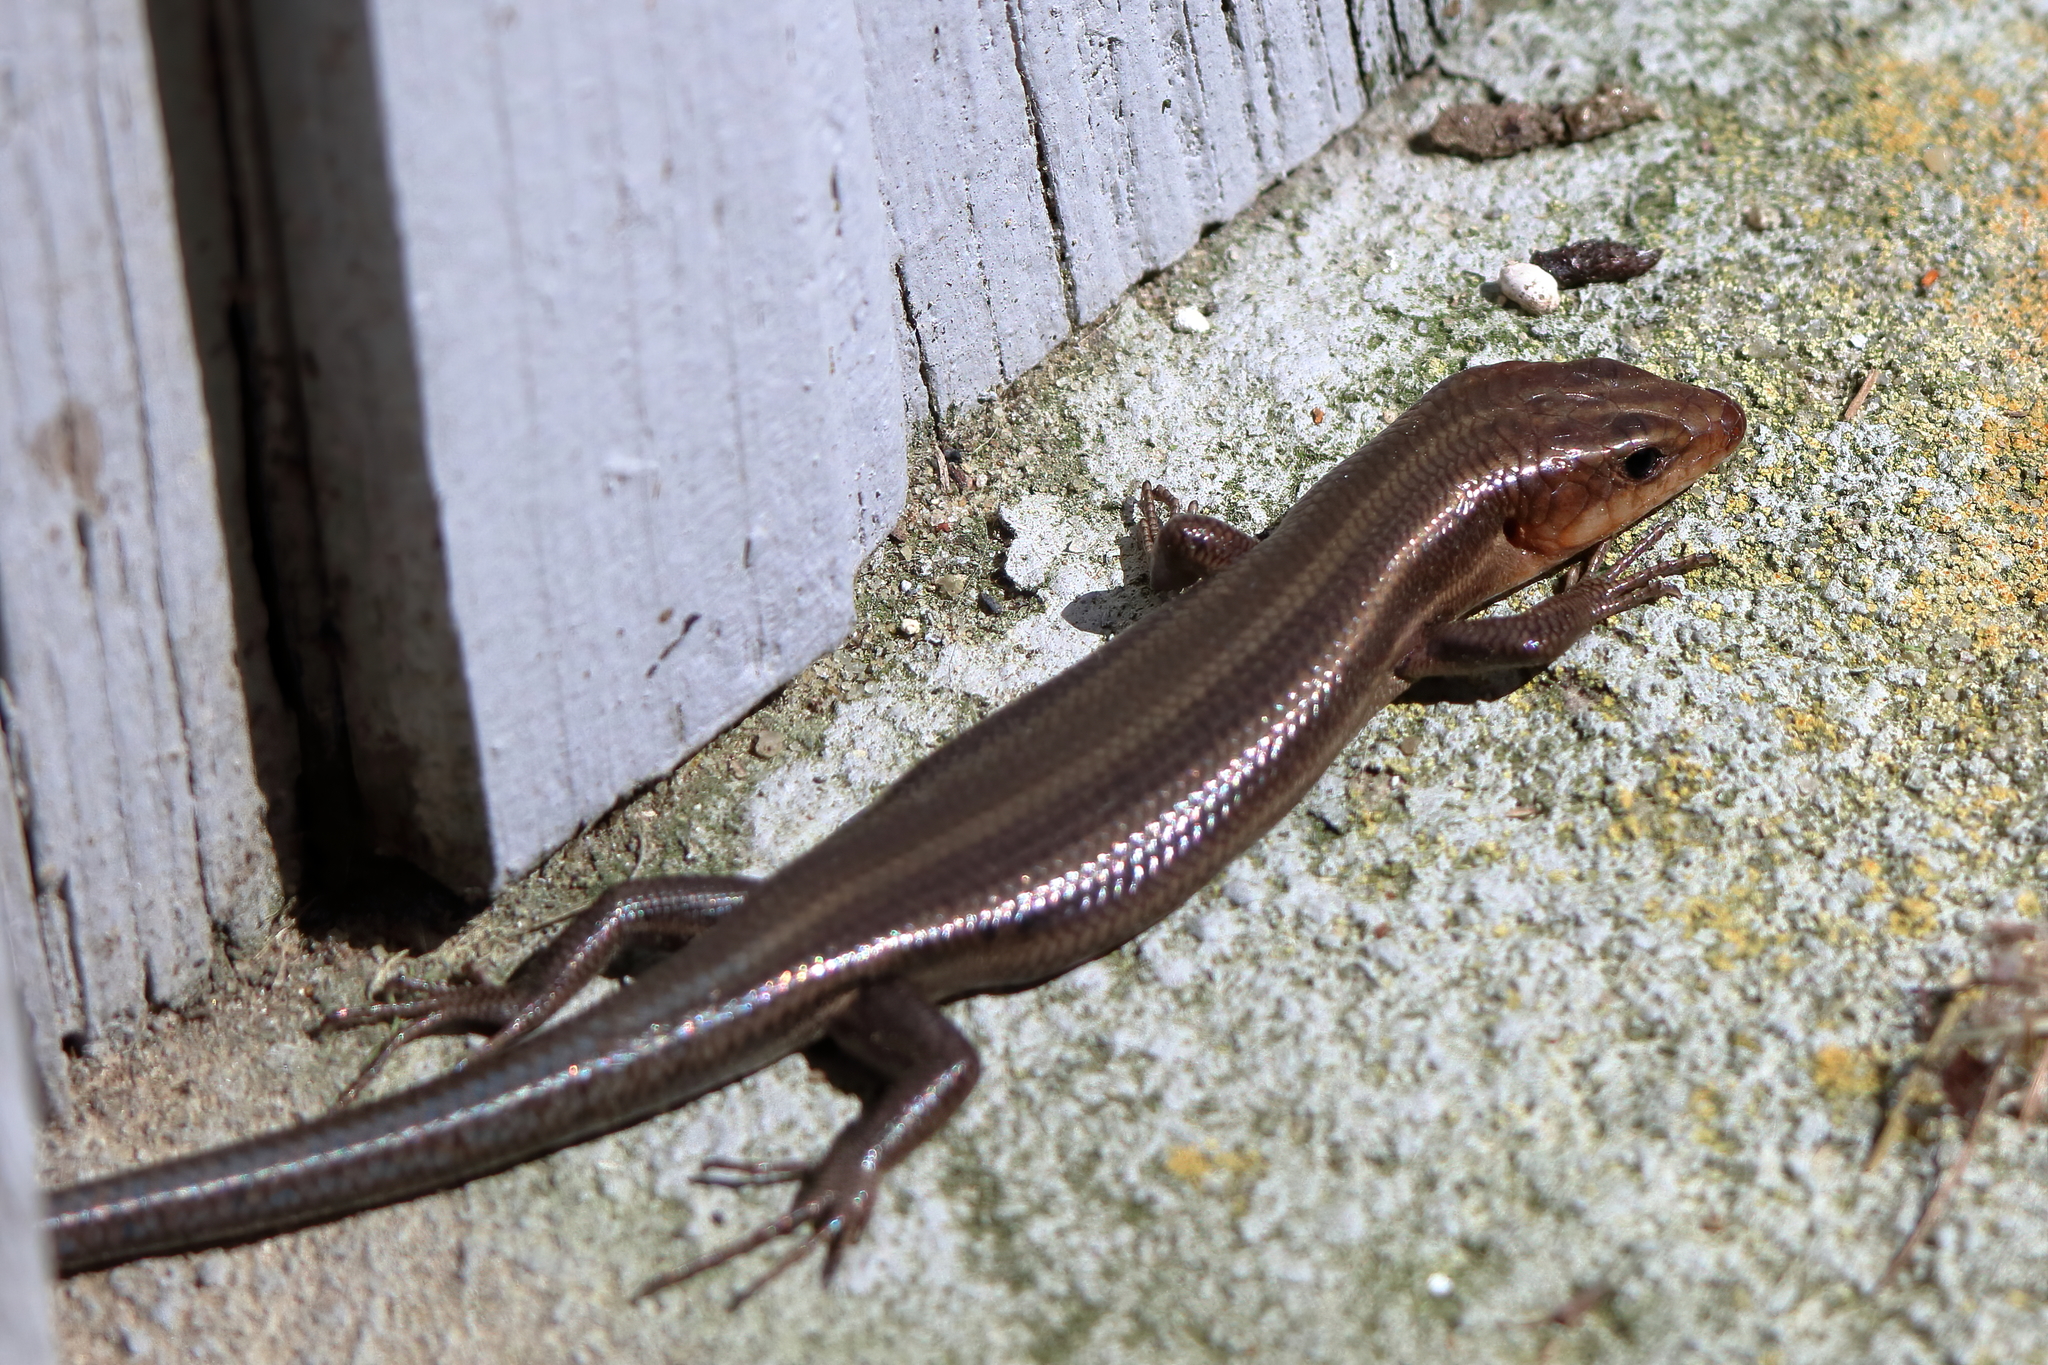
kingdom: Animalia
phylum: Chordata
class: Squamata
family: Scincidae
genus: Plestiodon
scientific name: Plestiodon fasciatus
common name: Five-lined skink
